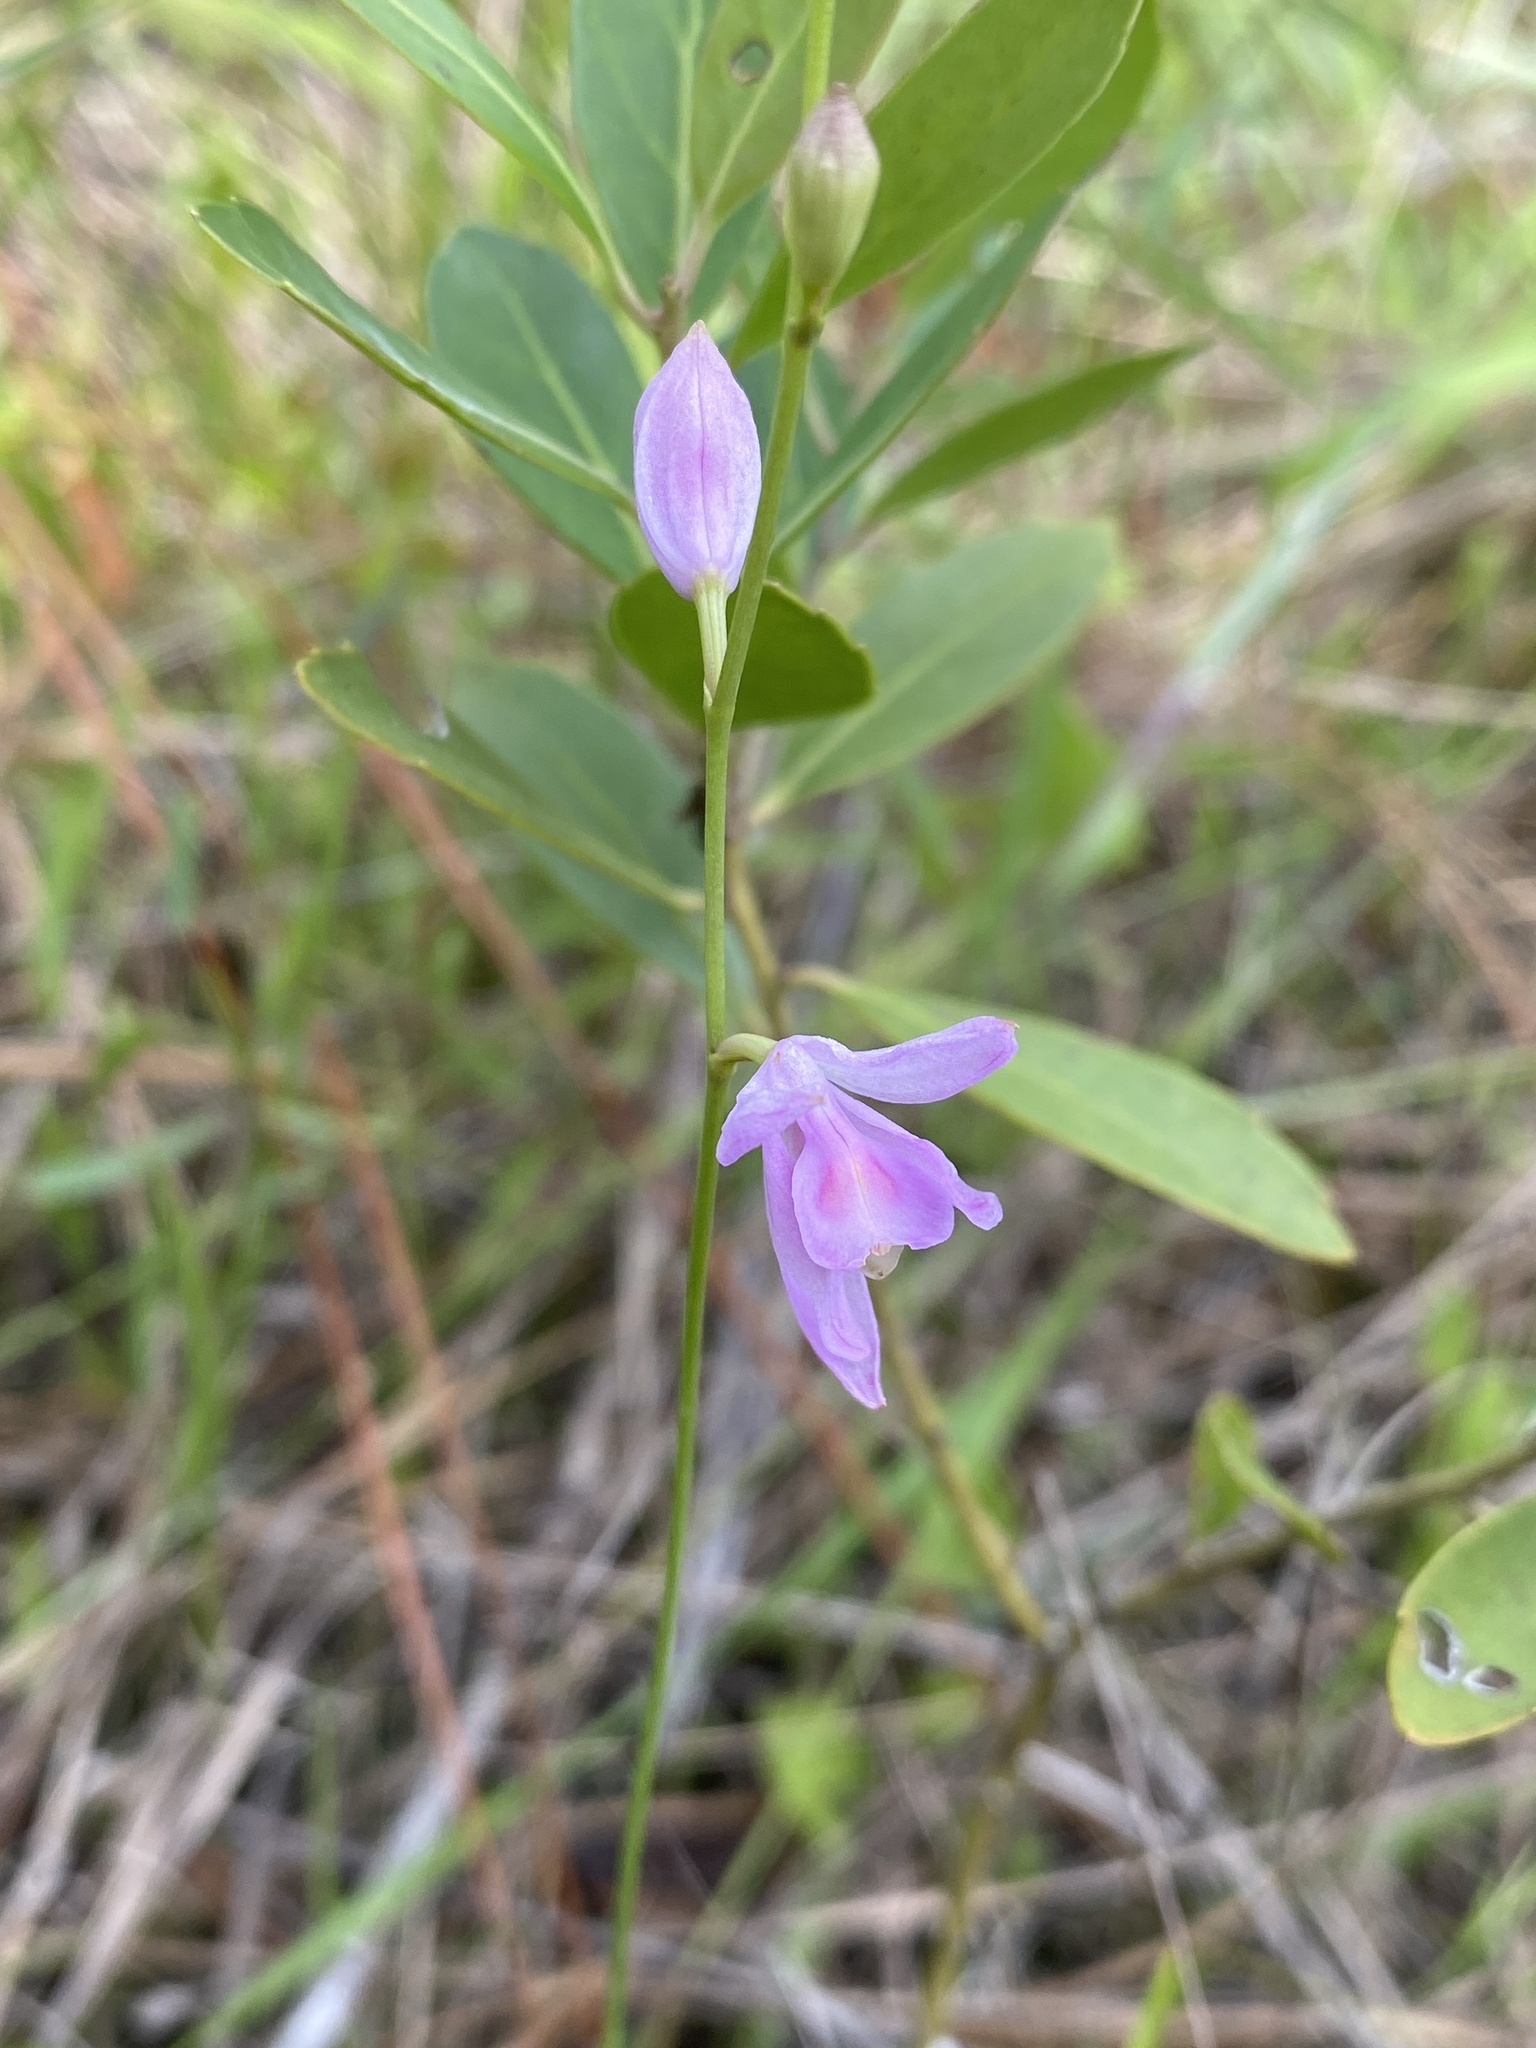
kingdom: Plantae
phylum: Tracheophyta
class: Liliopsida
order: Asparagales
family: Orchidaceae
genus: Calopogon
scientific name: Calopogon pallidus
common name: Pale grasspink
